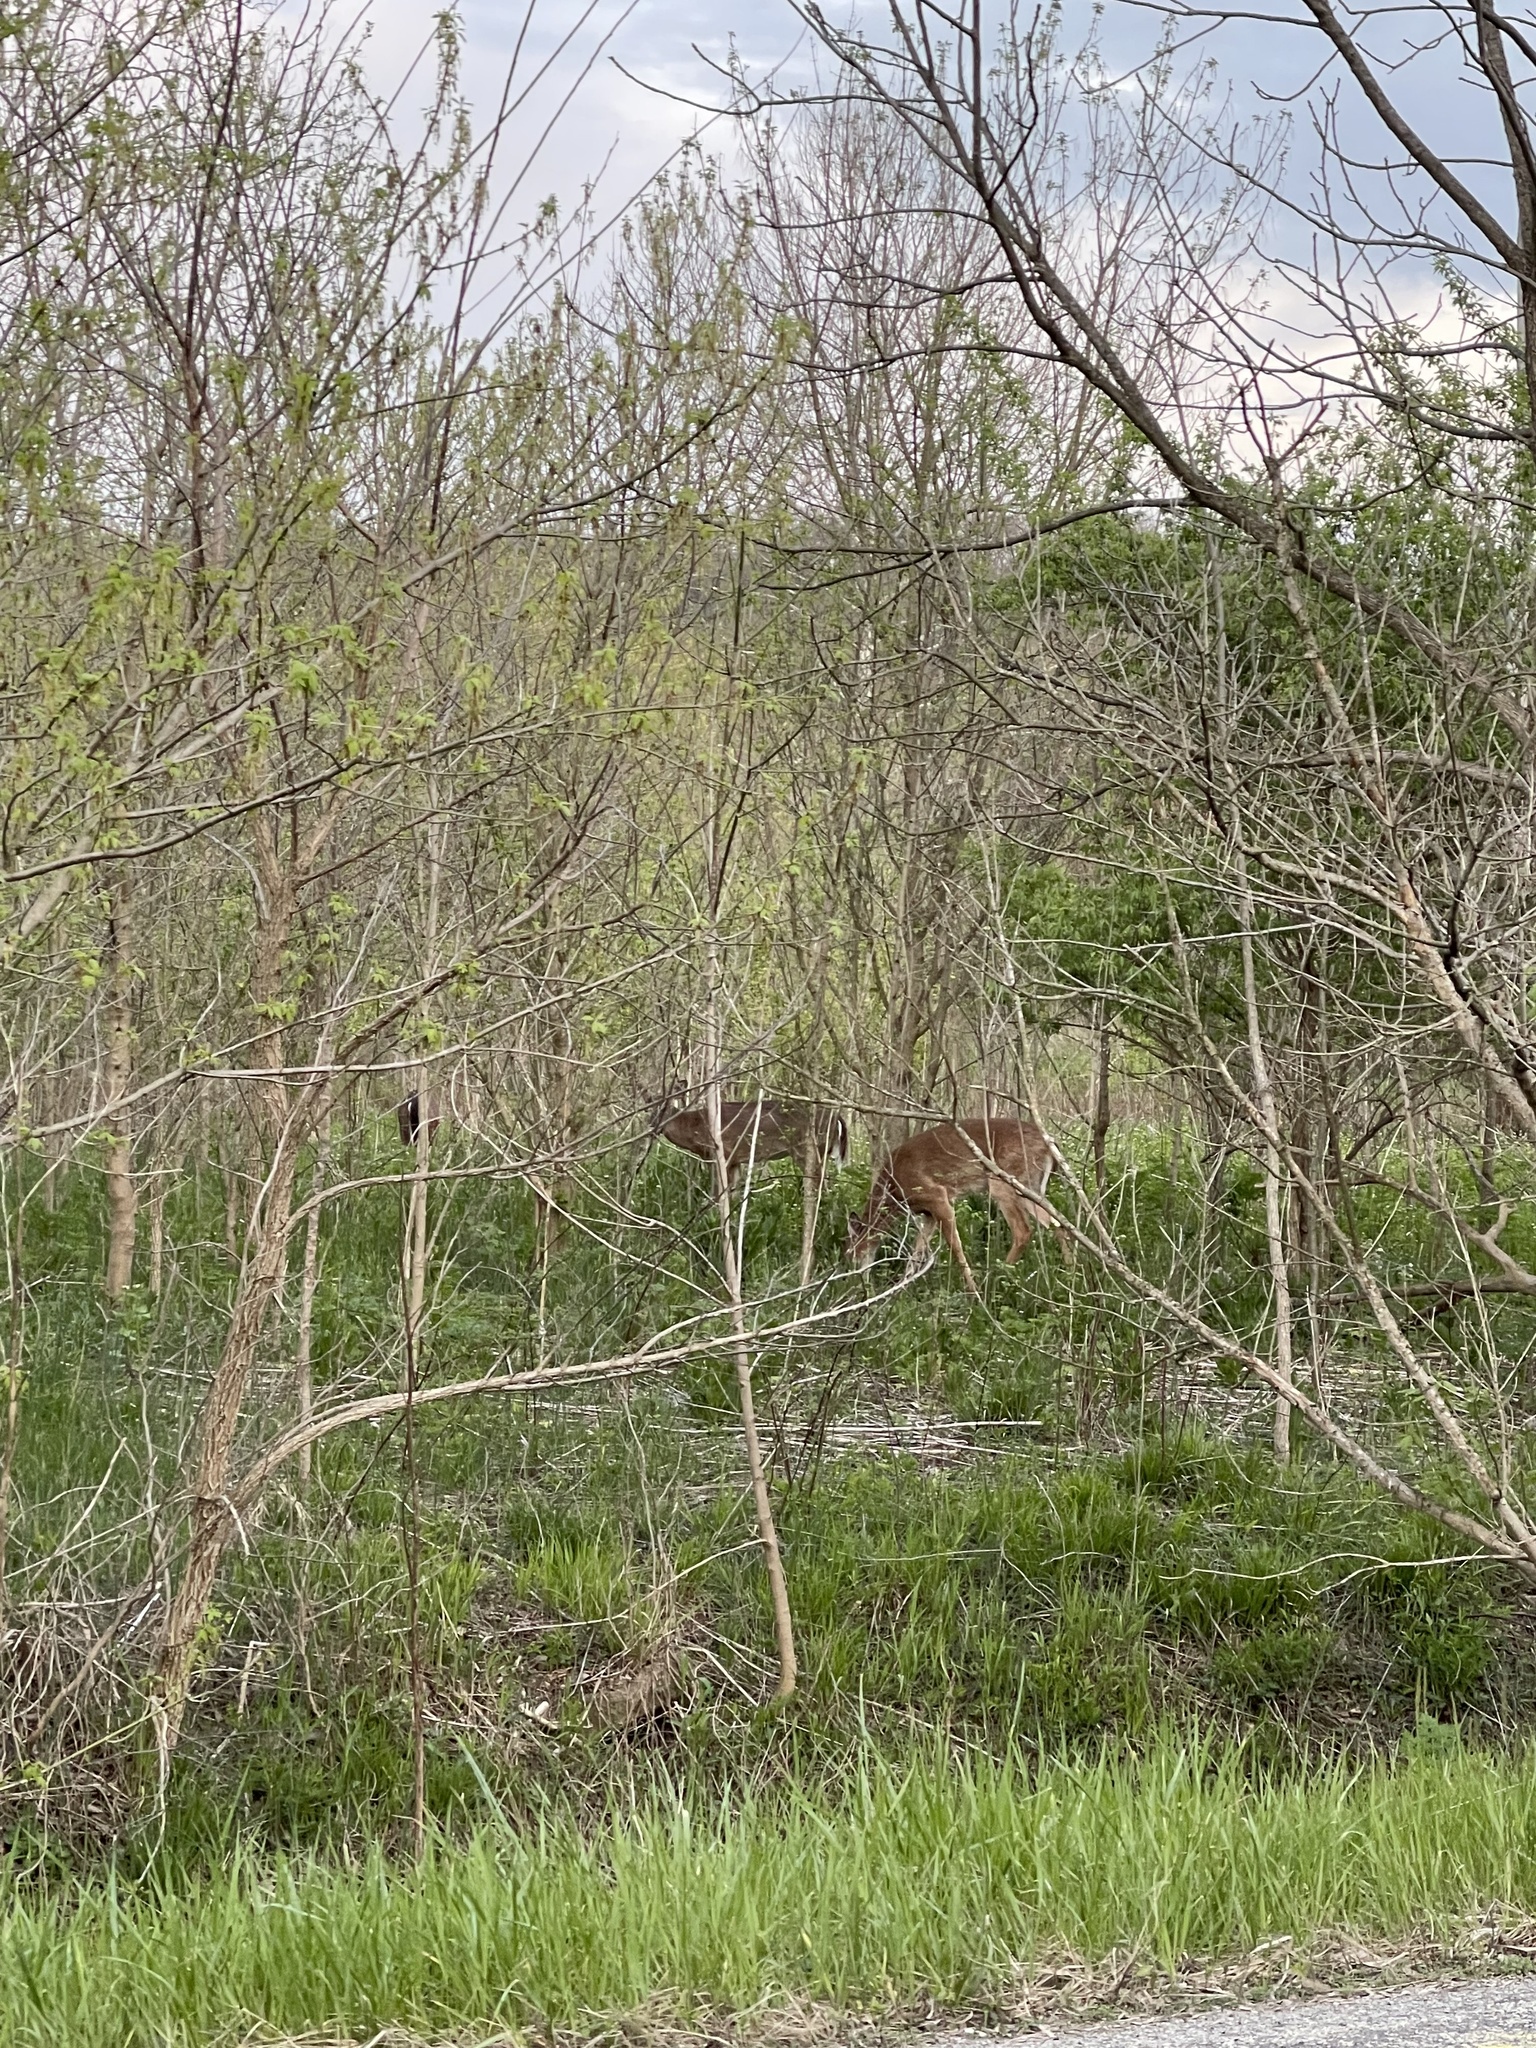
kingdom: Animalia
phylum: Chordata
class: Mammalia
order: Artiodactyla
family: Cervidae
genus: Odocoileus
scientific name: Odocoileus virginianus
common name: White-tailed deer
